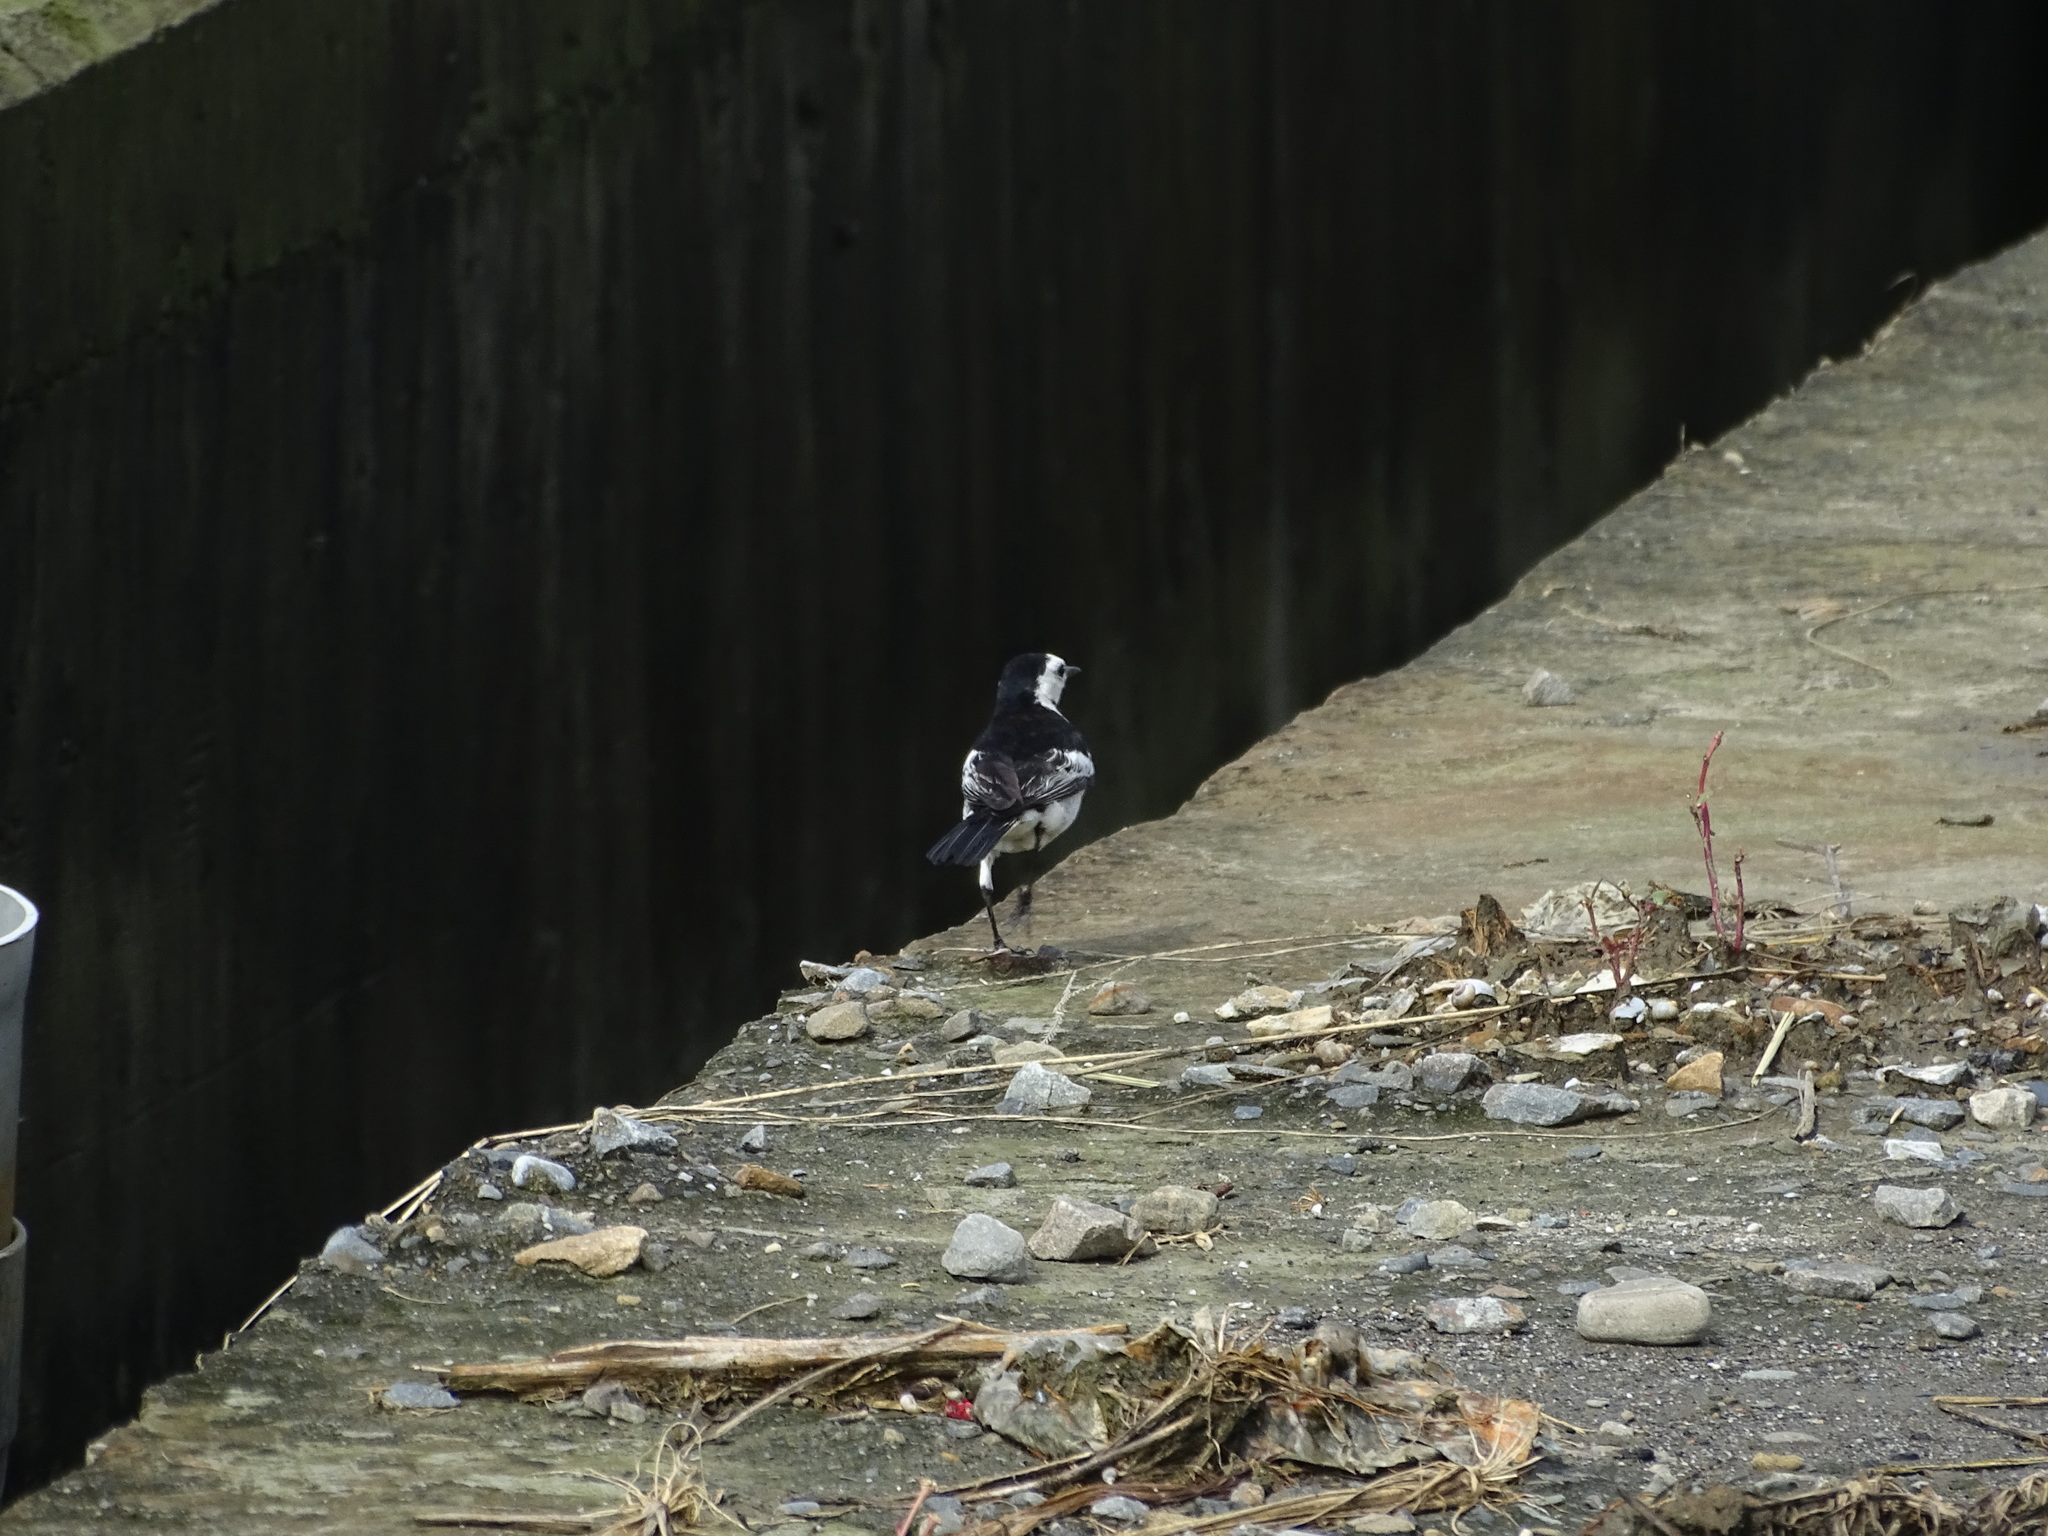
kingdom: Animalia
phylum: Chordata
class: Aves
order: Passeriformes
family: Motacillidae
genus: Motacilla
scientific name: Motacilla alba
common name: White wagtail
